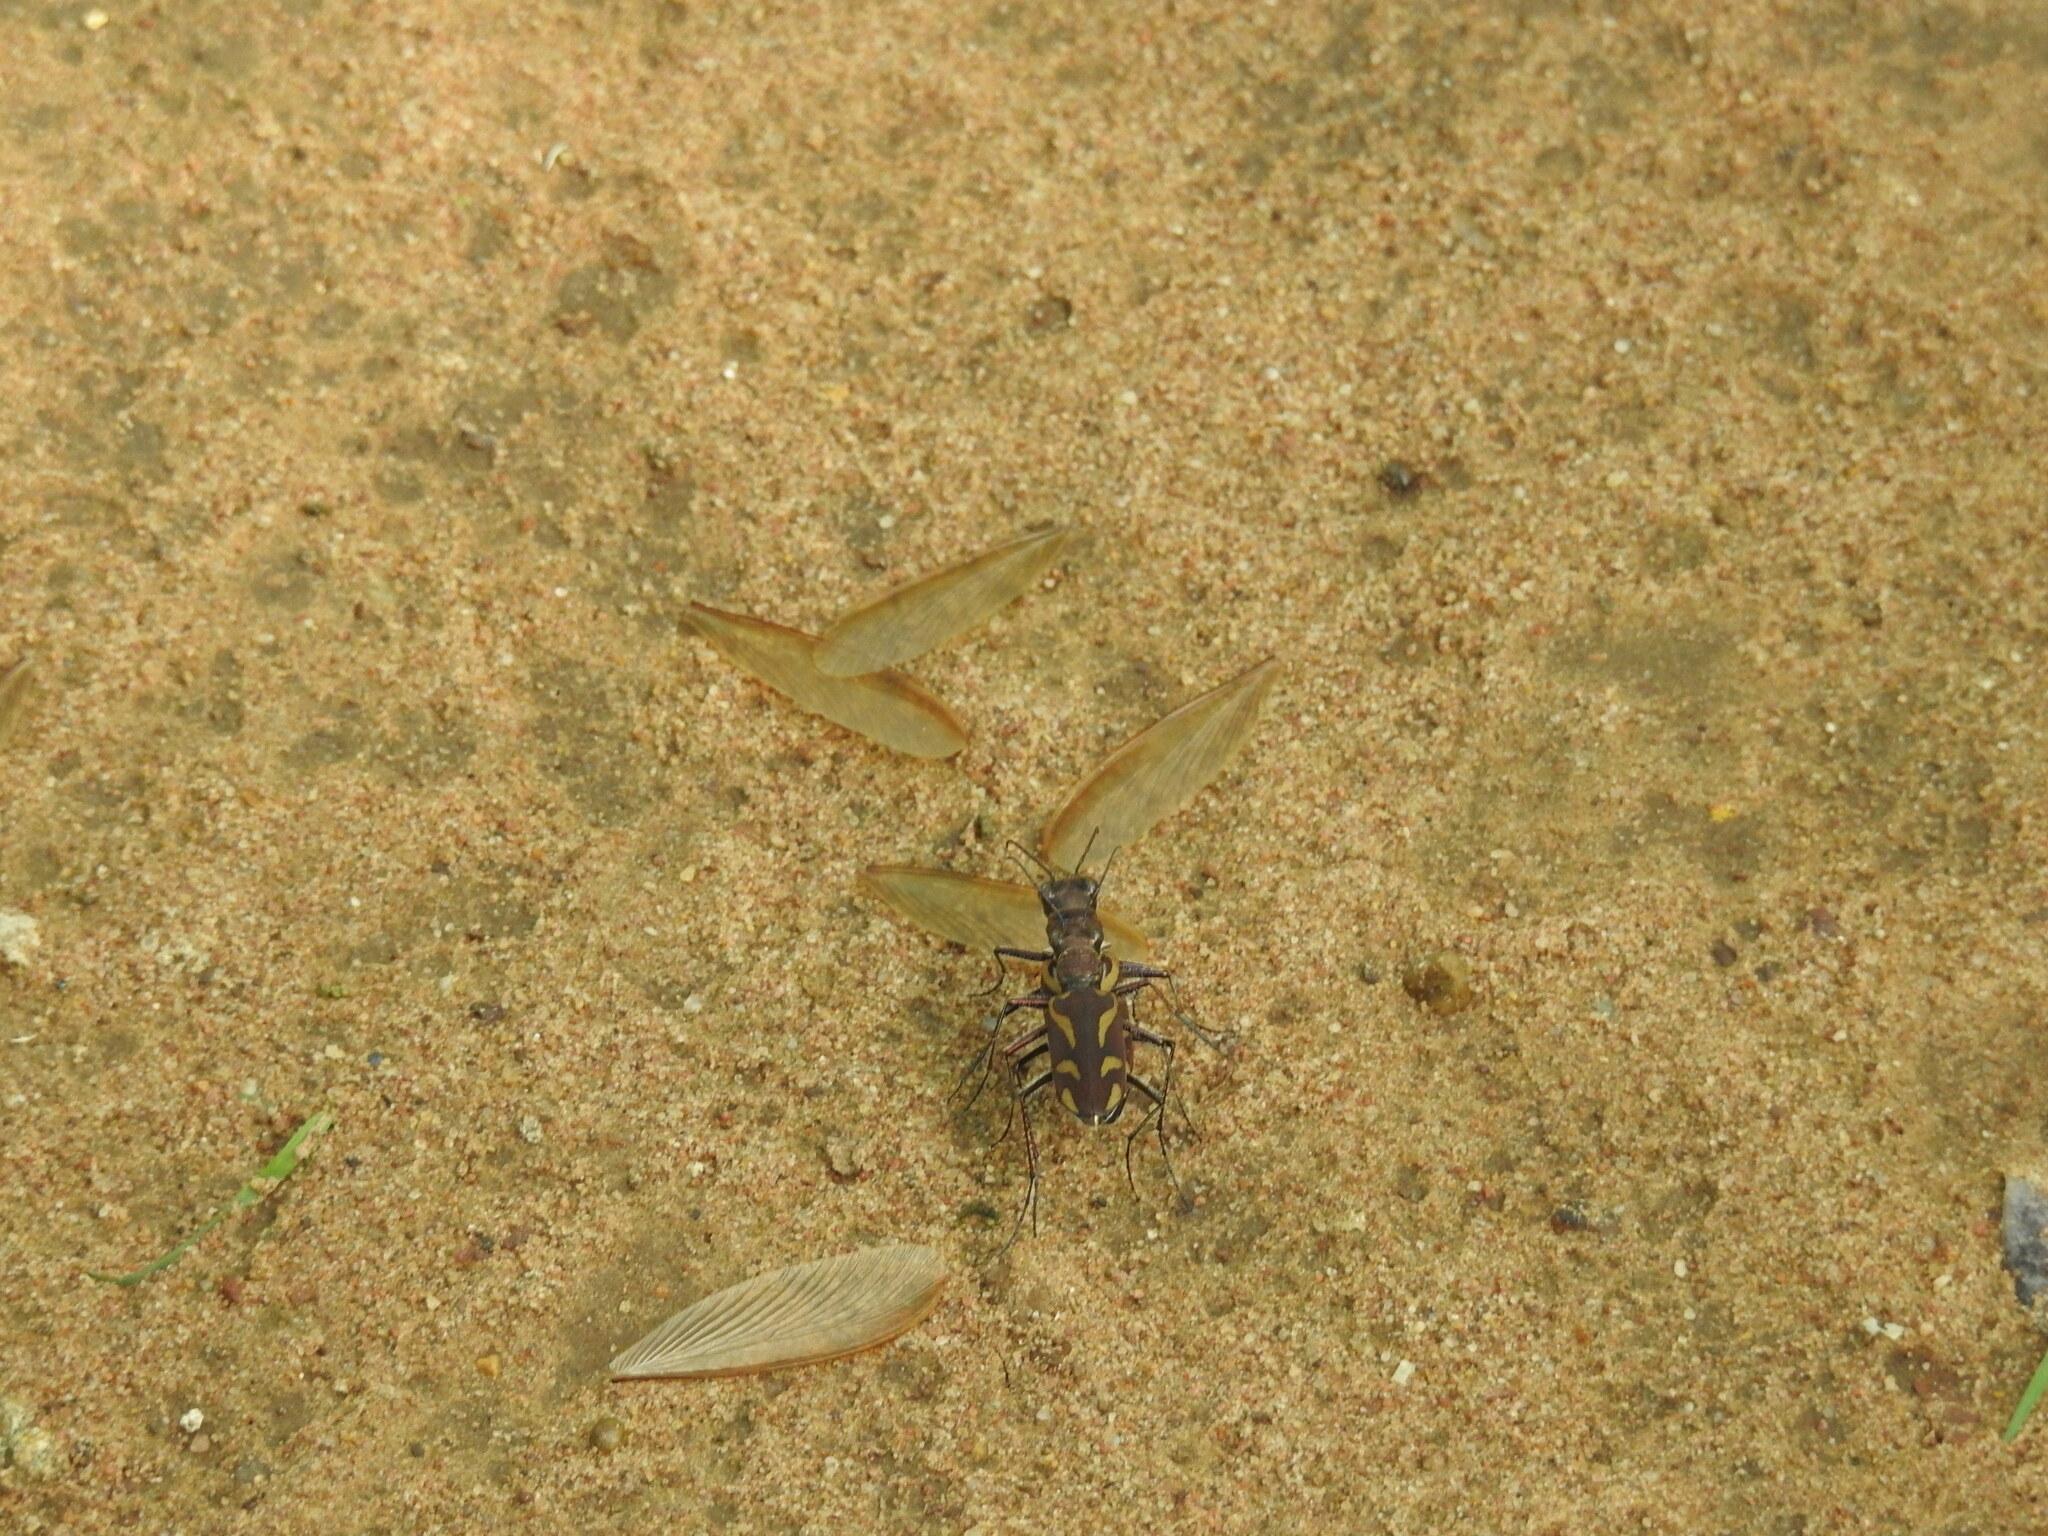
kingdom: Animalia
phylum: Arthropoda
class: Insecta
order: Coleoptera
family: Carabidae
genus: Cicindela
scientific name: Cicindela calligramma
